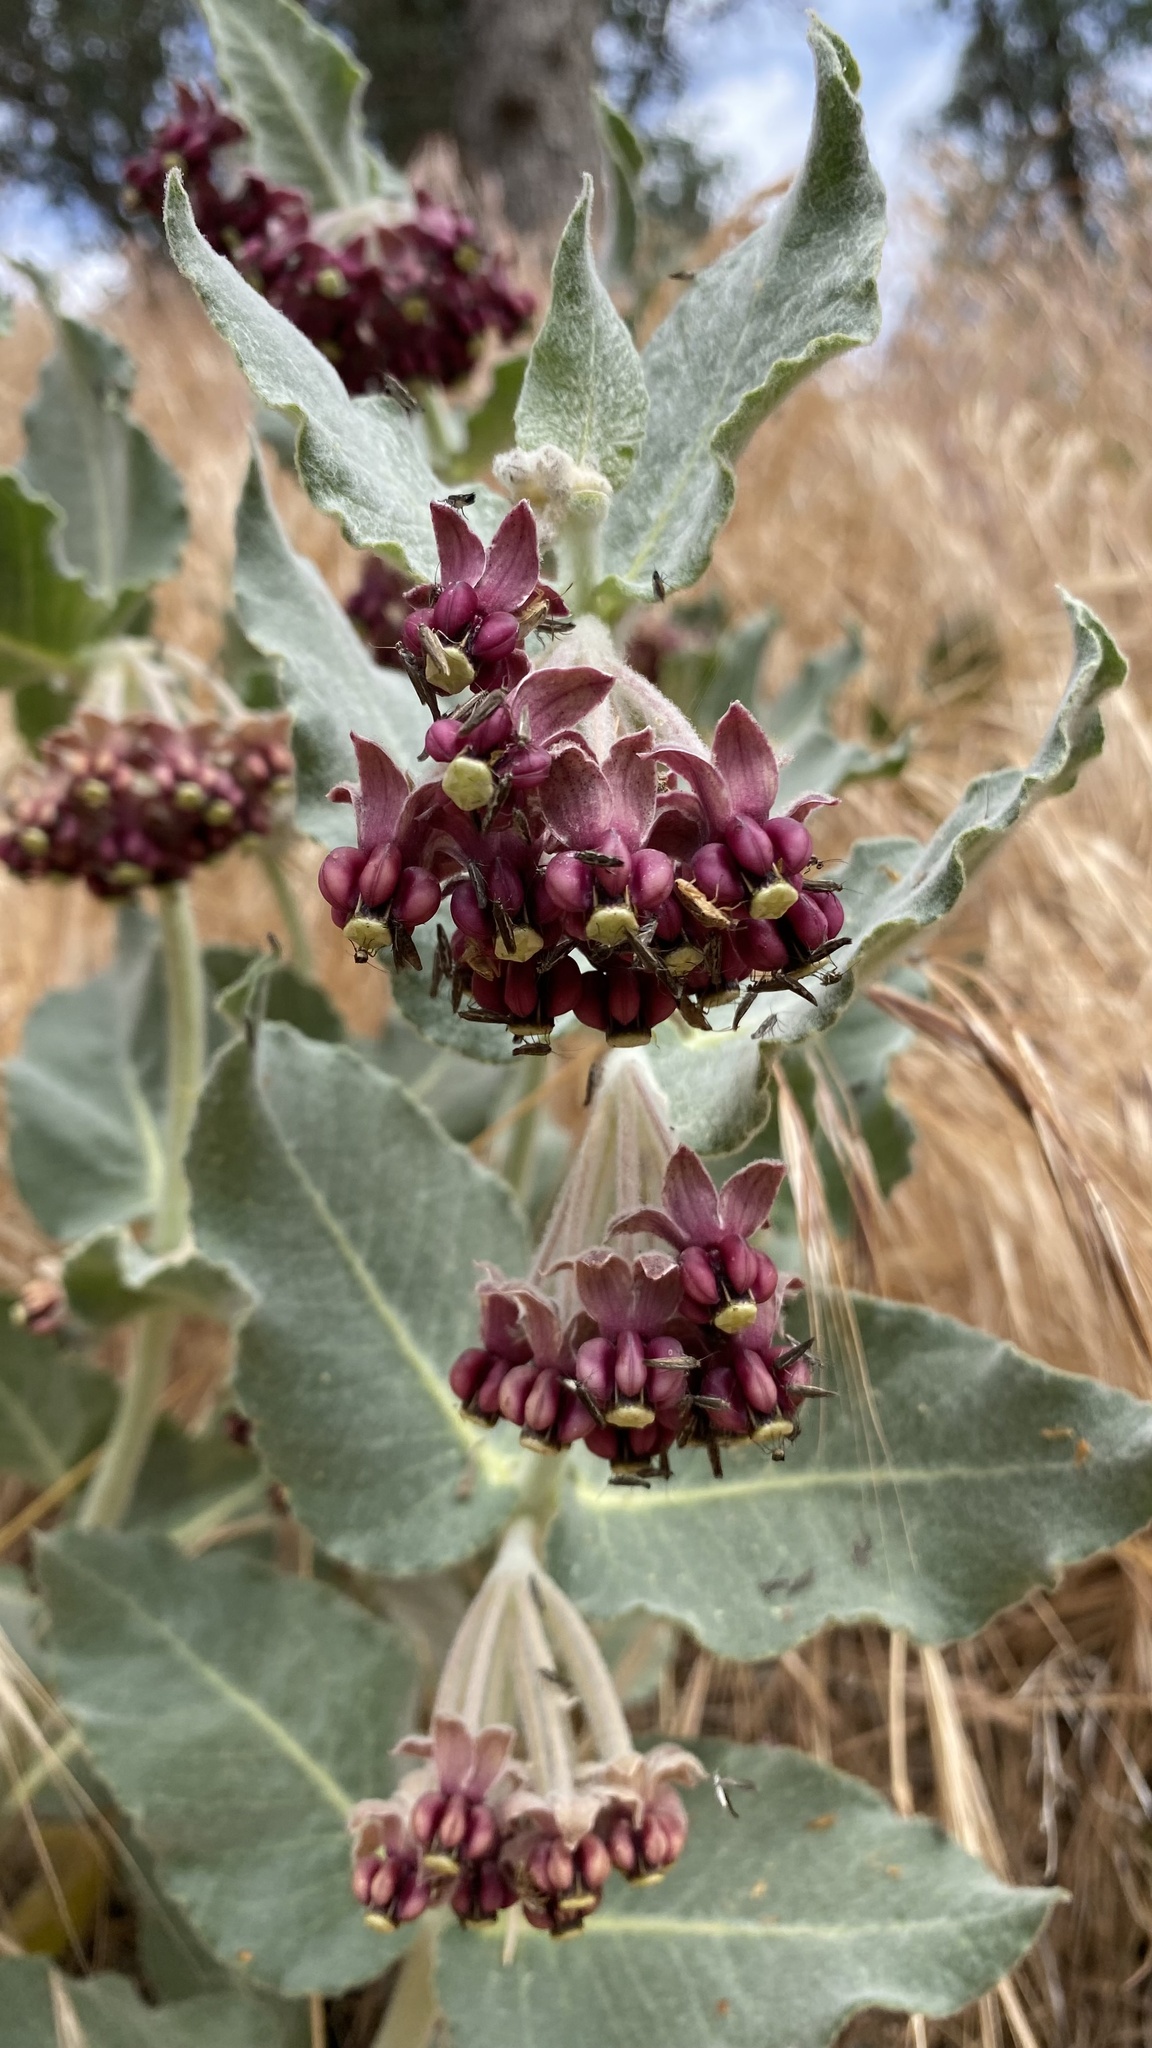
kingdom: Plantae
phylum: Tracheophyta
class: Magnoliopsida
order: Gentianales
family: Apocynaceae
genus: Asclepias
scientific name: Asclepias californica
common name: California milkweed
